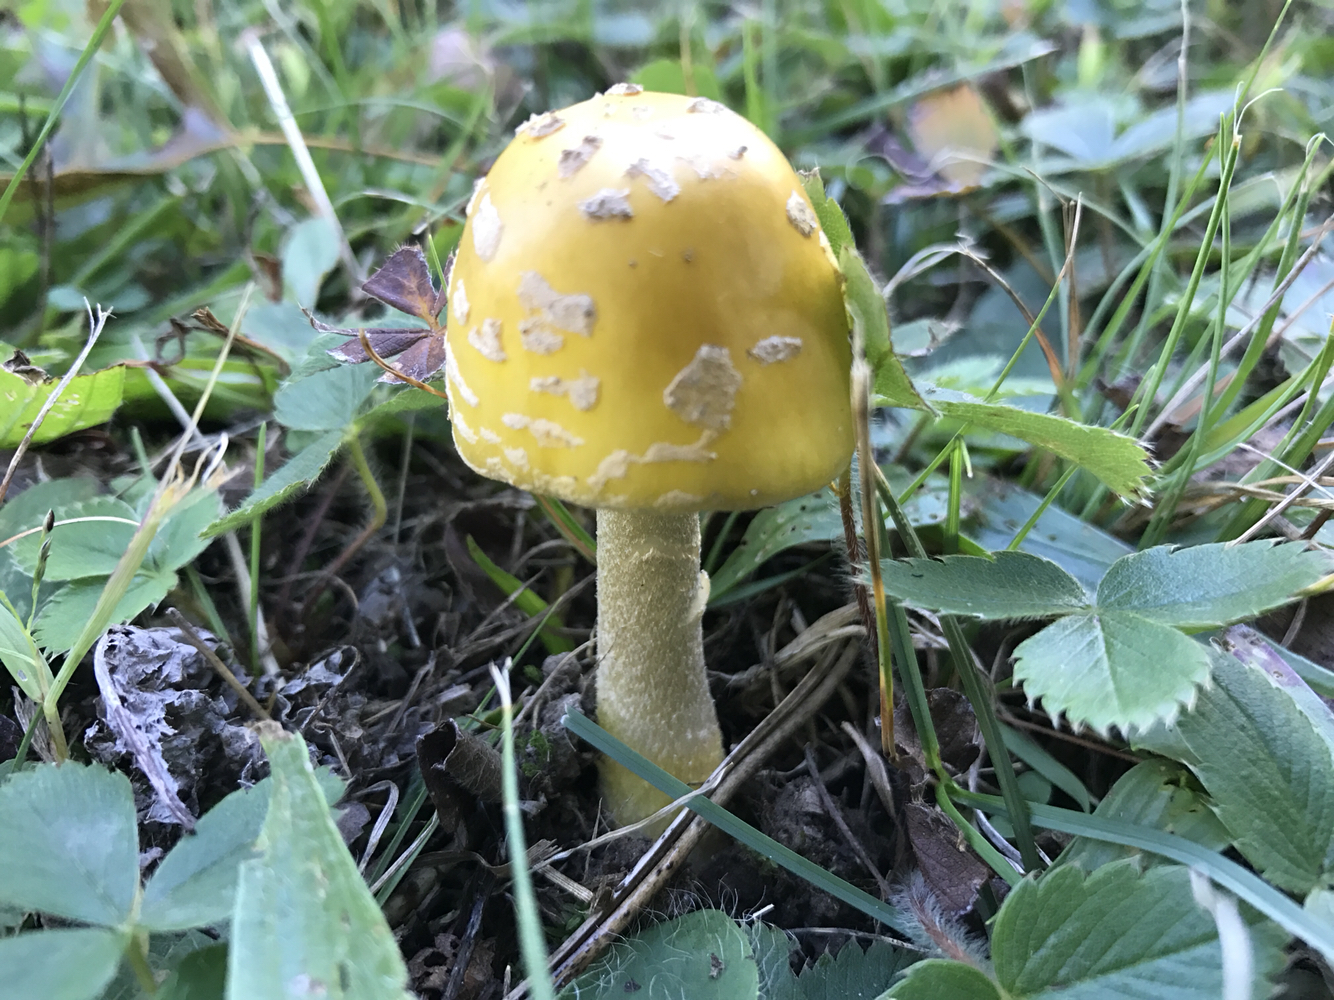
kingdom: Fungi
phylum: Basidiomycota
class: Agaricomycetes
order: Agaricales
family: Amanitaceae
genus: Amanita
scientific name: Amanita muscaria
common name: Fly agaric
